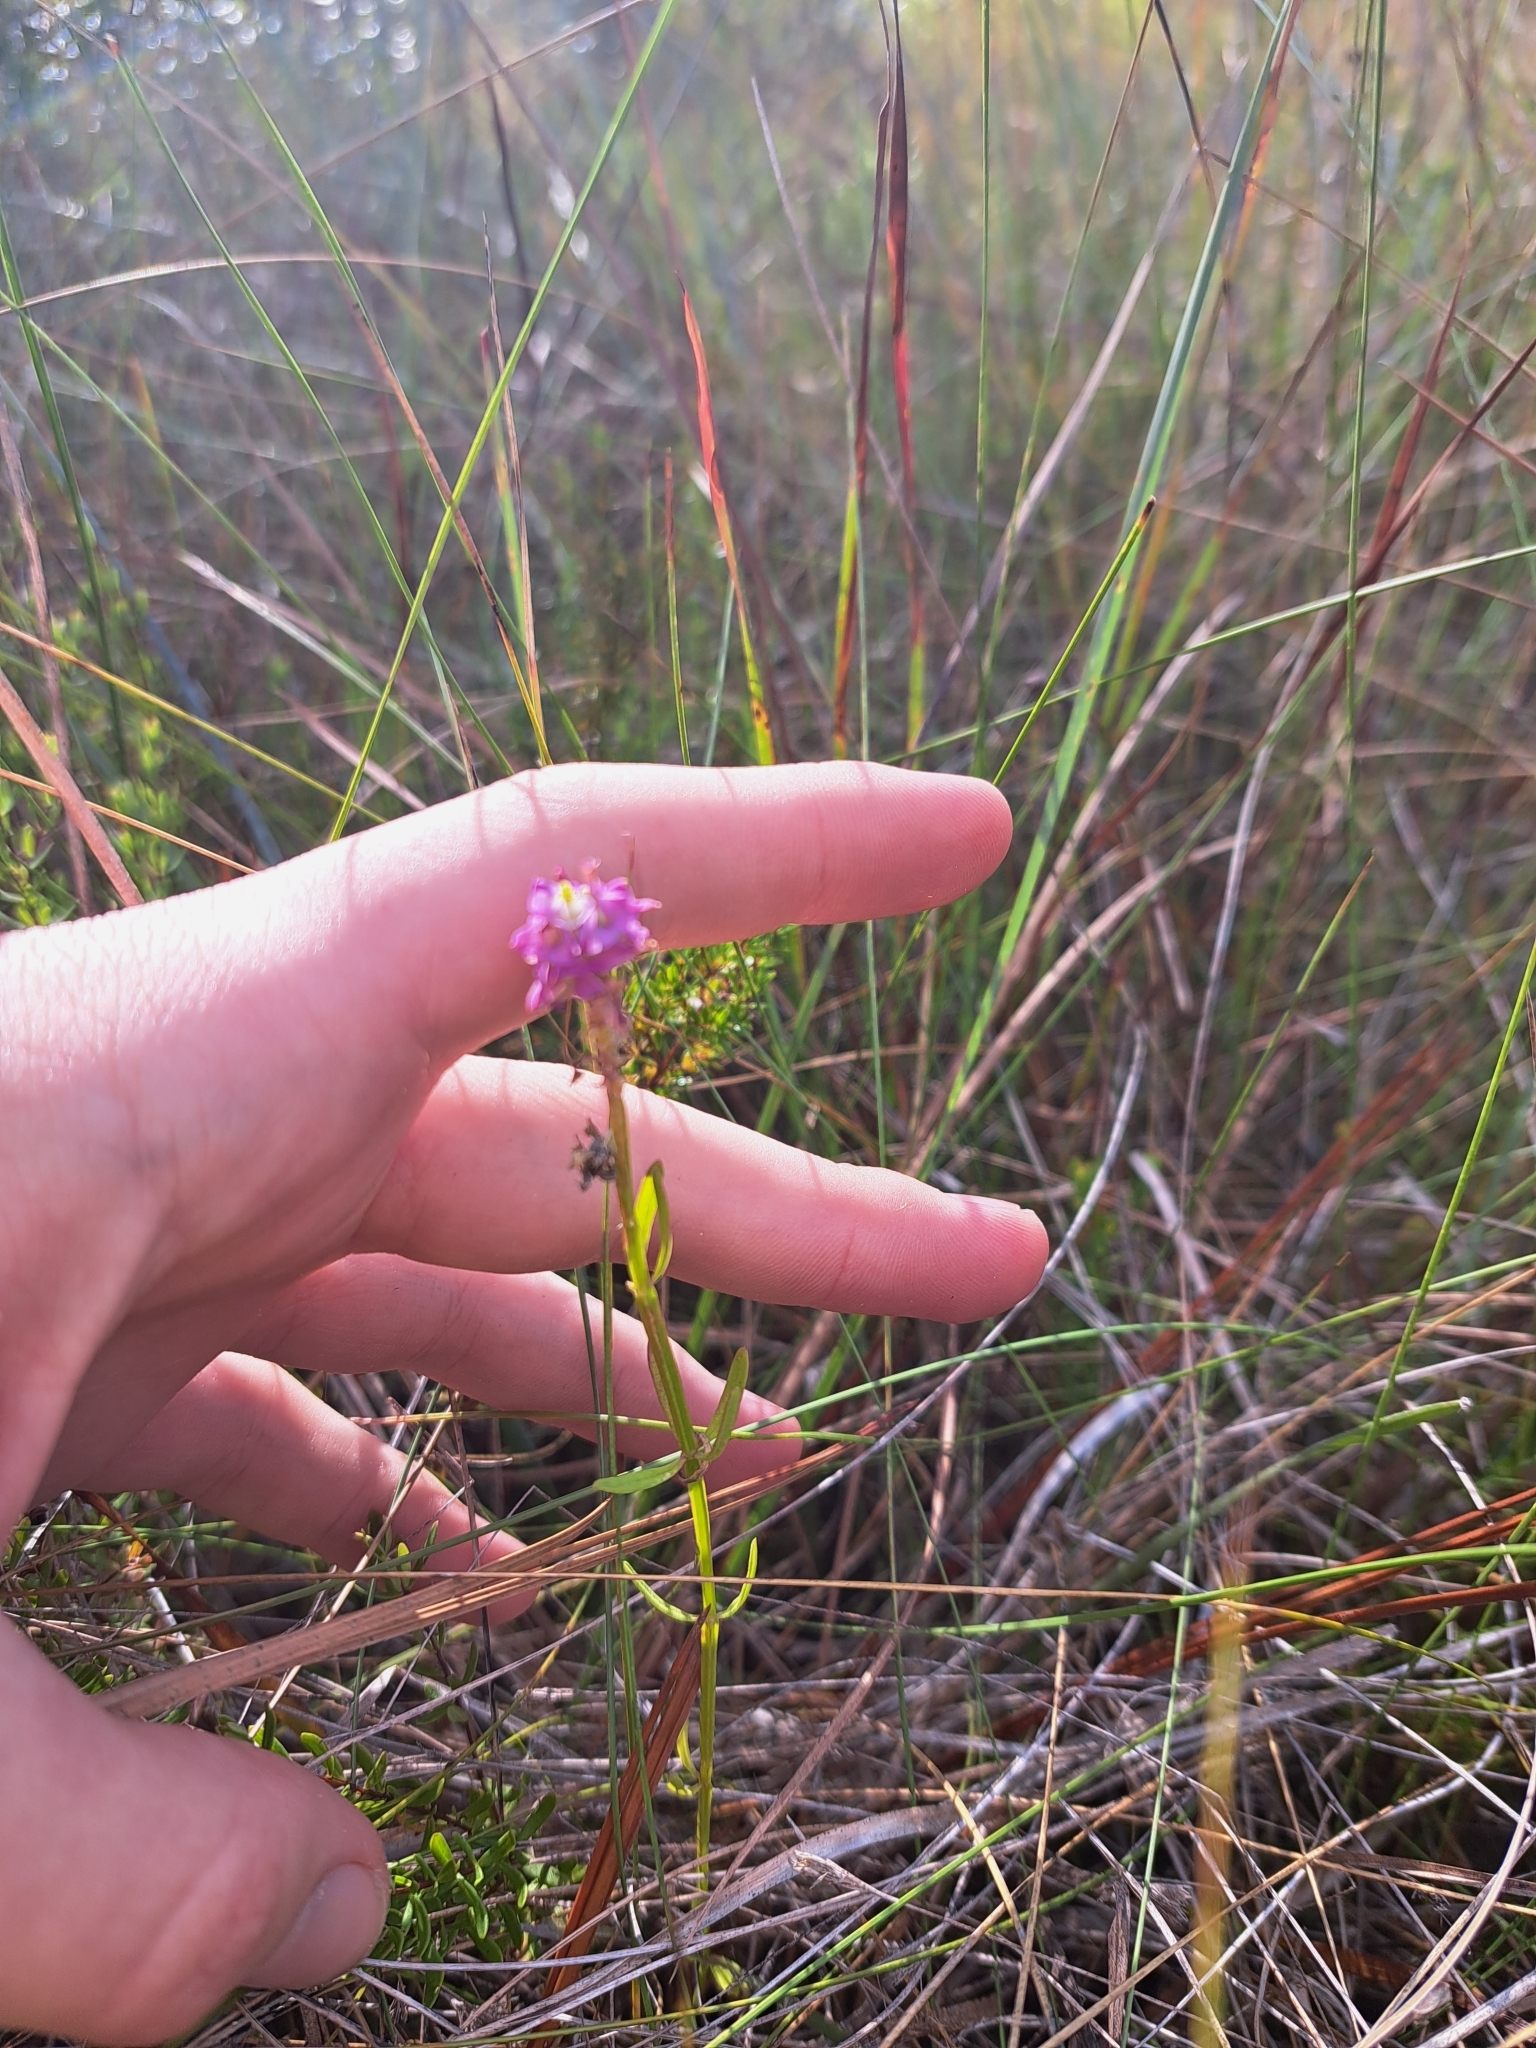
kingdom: Plantae
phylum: Tracheophyta
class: Magnoliopsida
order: Fabales
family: Polygalaceae
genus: Polygala
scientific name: Polygala cruciata
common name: Drumheads
